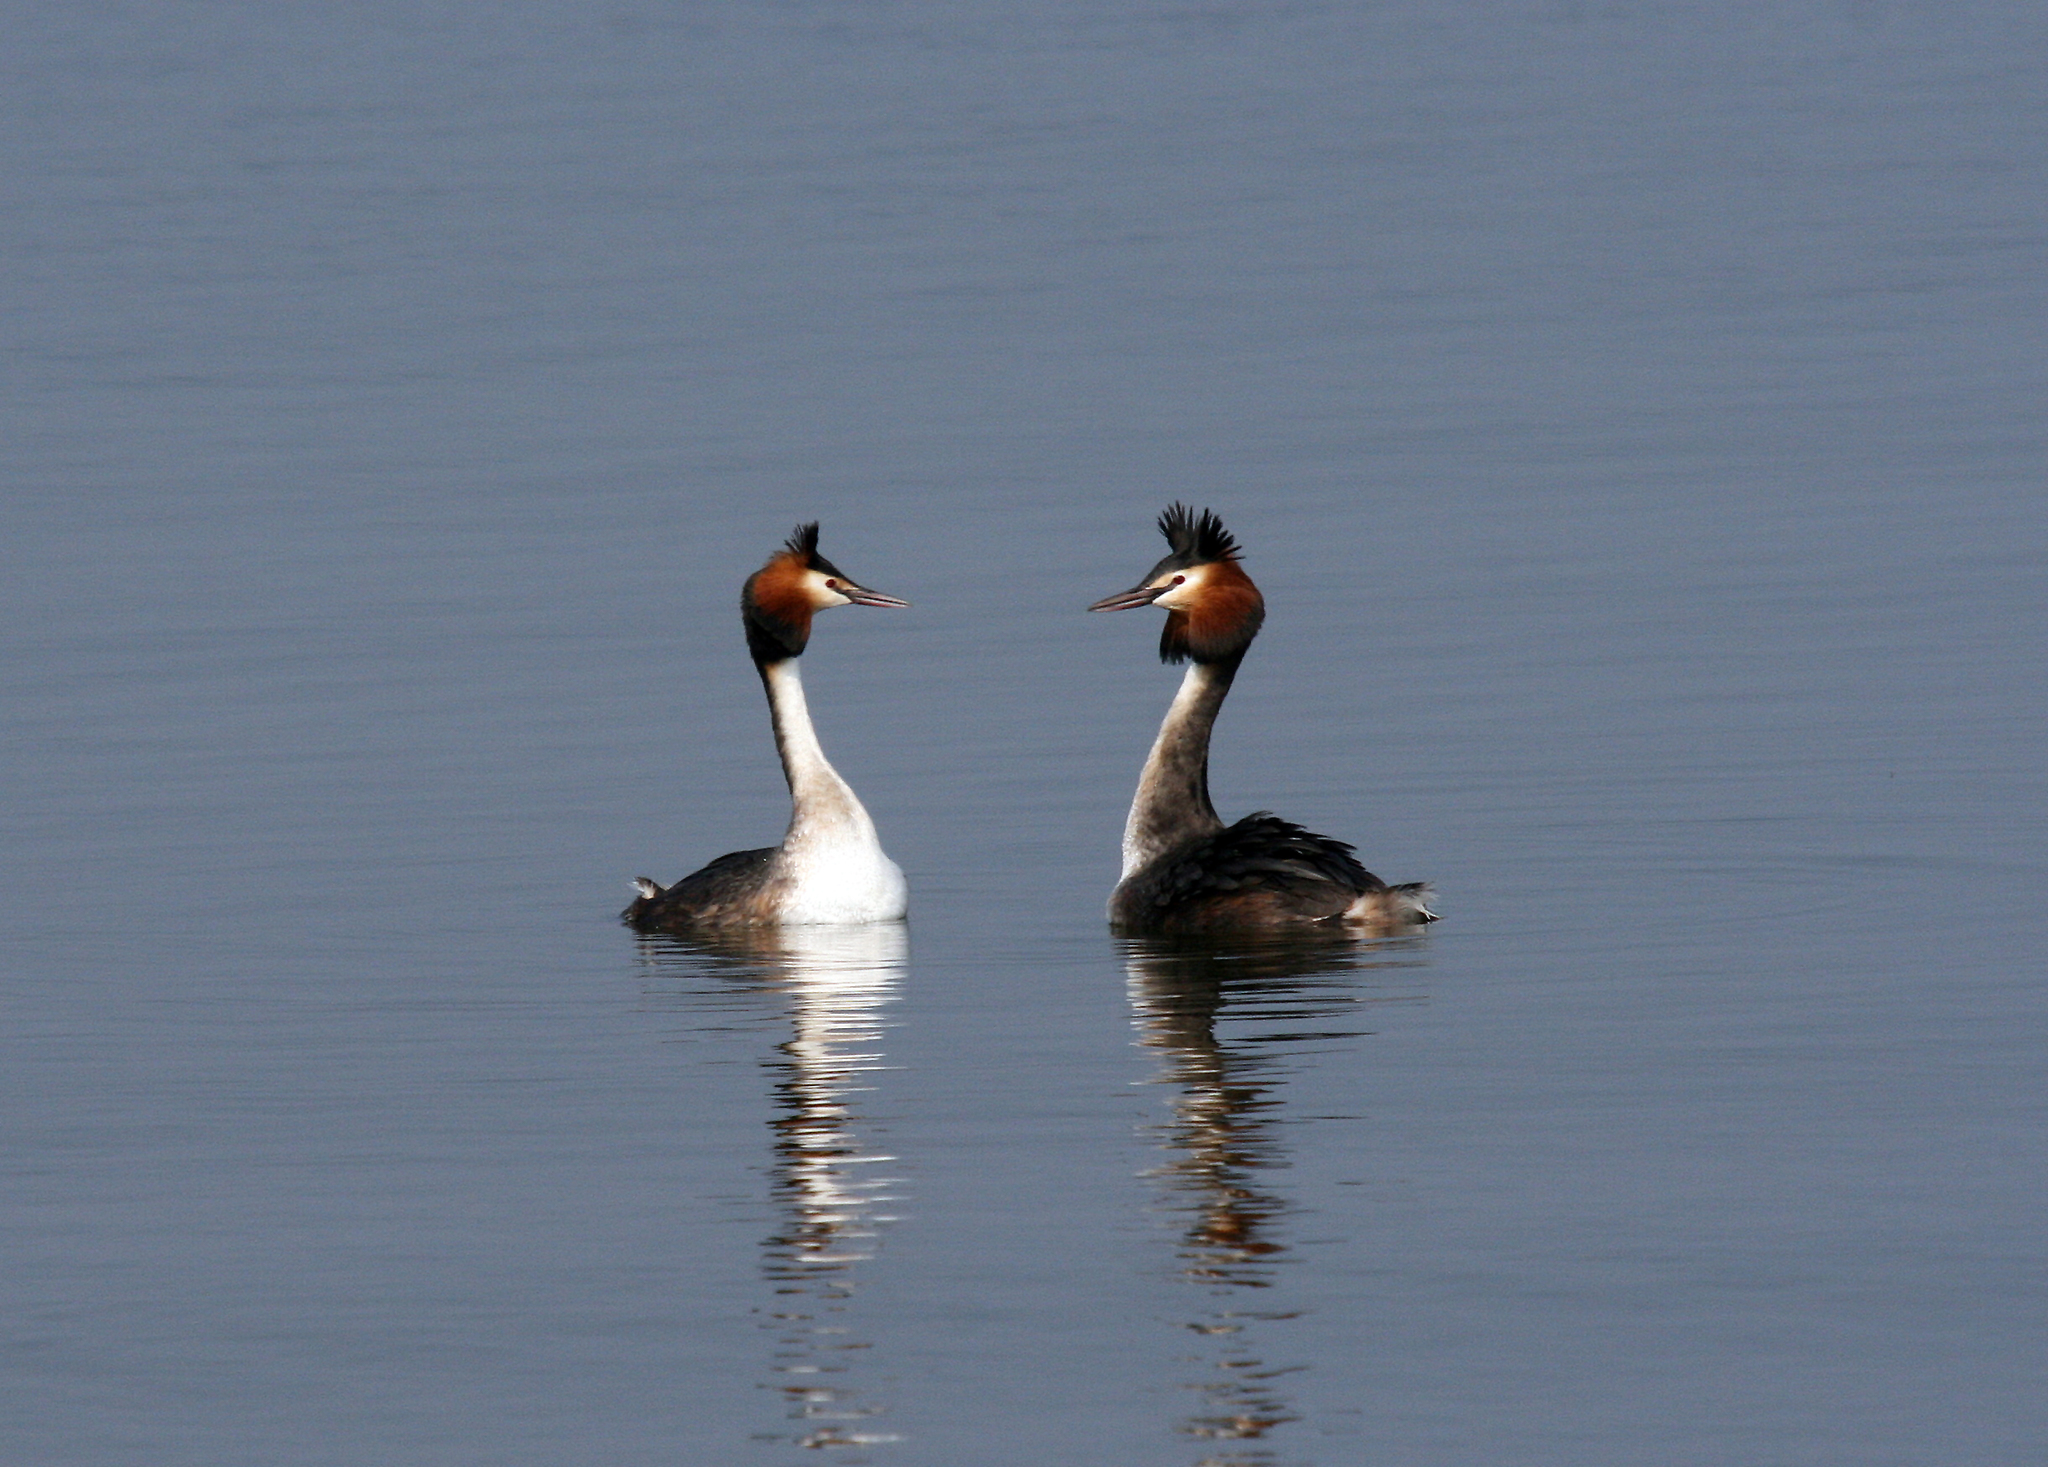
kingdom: Animalia
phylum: Chordata
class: Aves
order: Podicipediformes
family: Podicipedidae
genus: Podiceps
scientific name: Podiceps cristatus
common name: Great crested grebe
